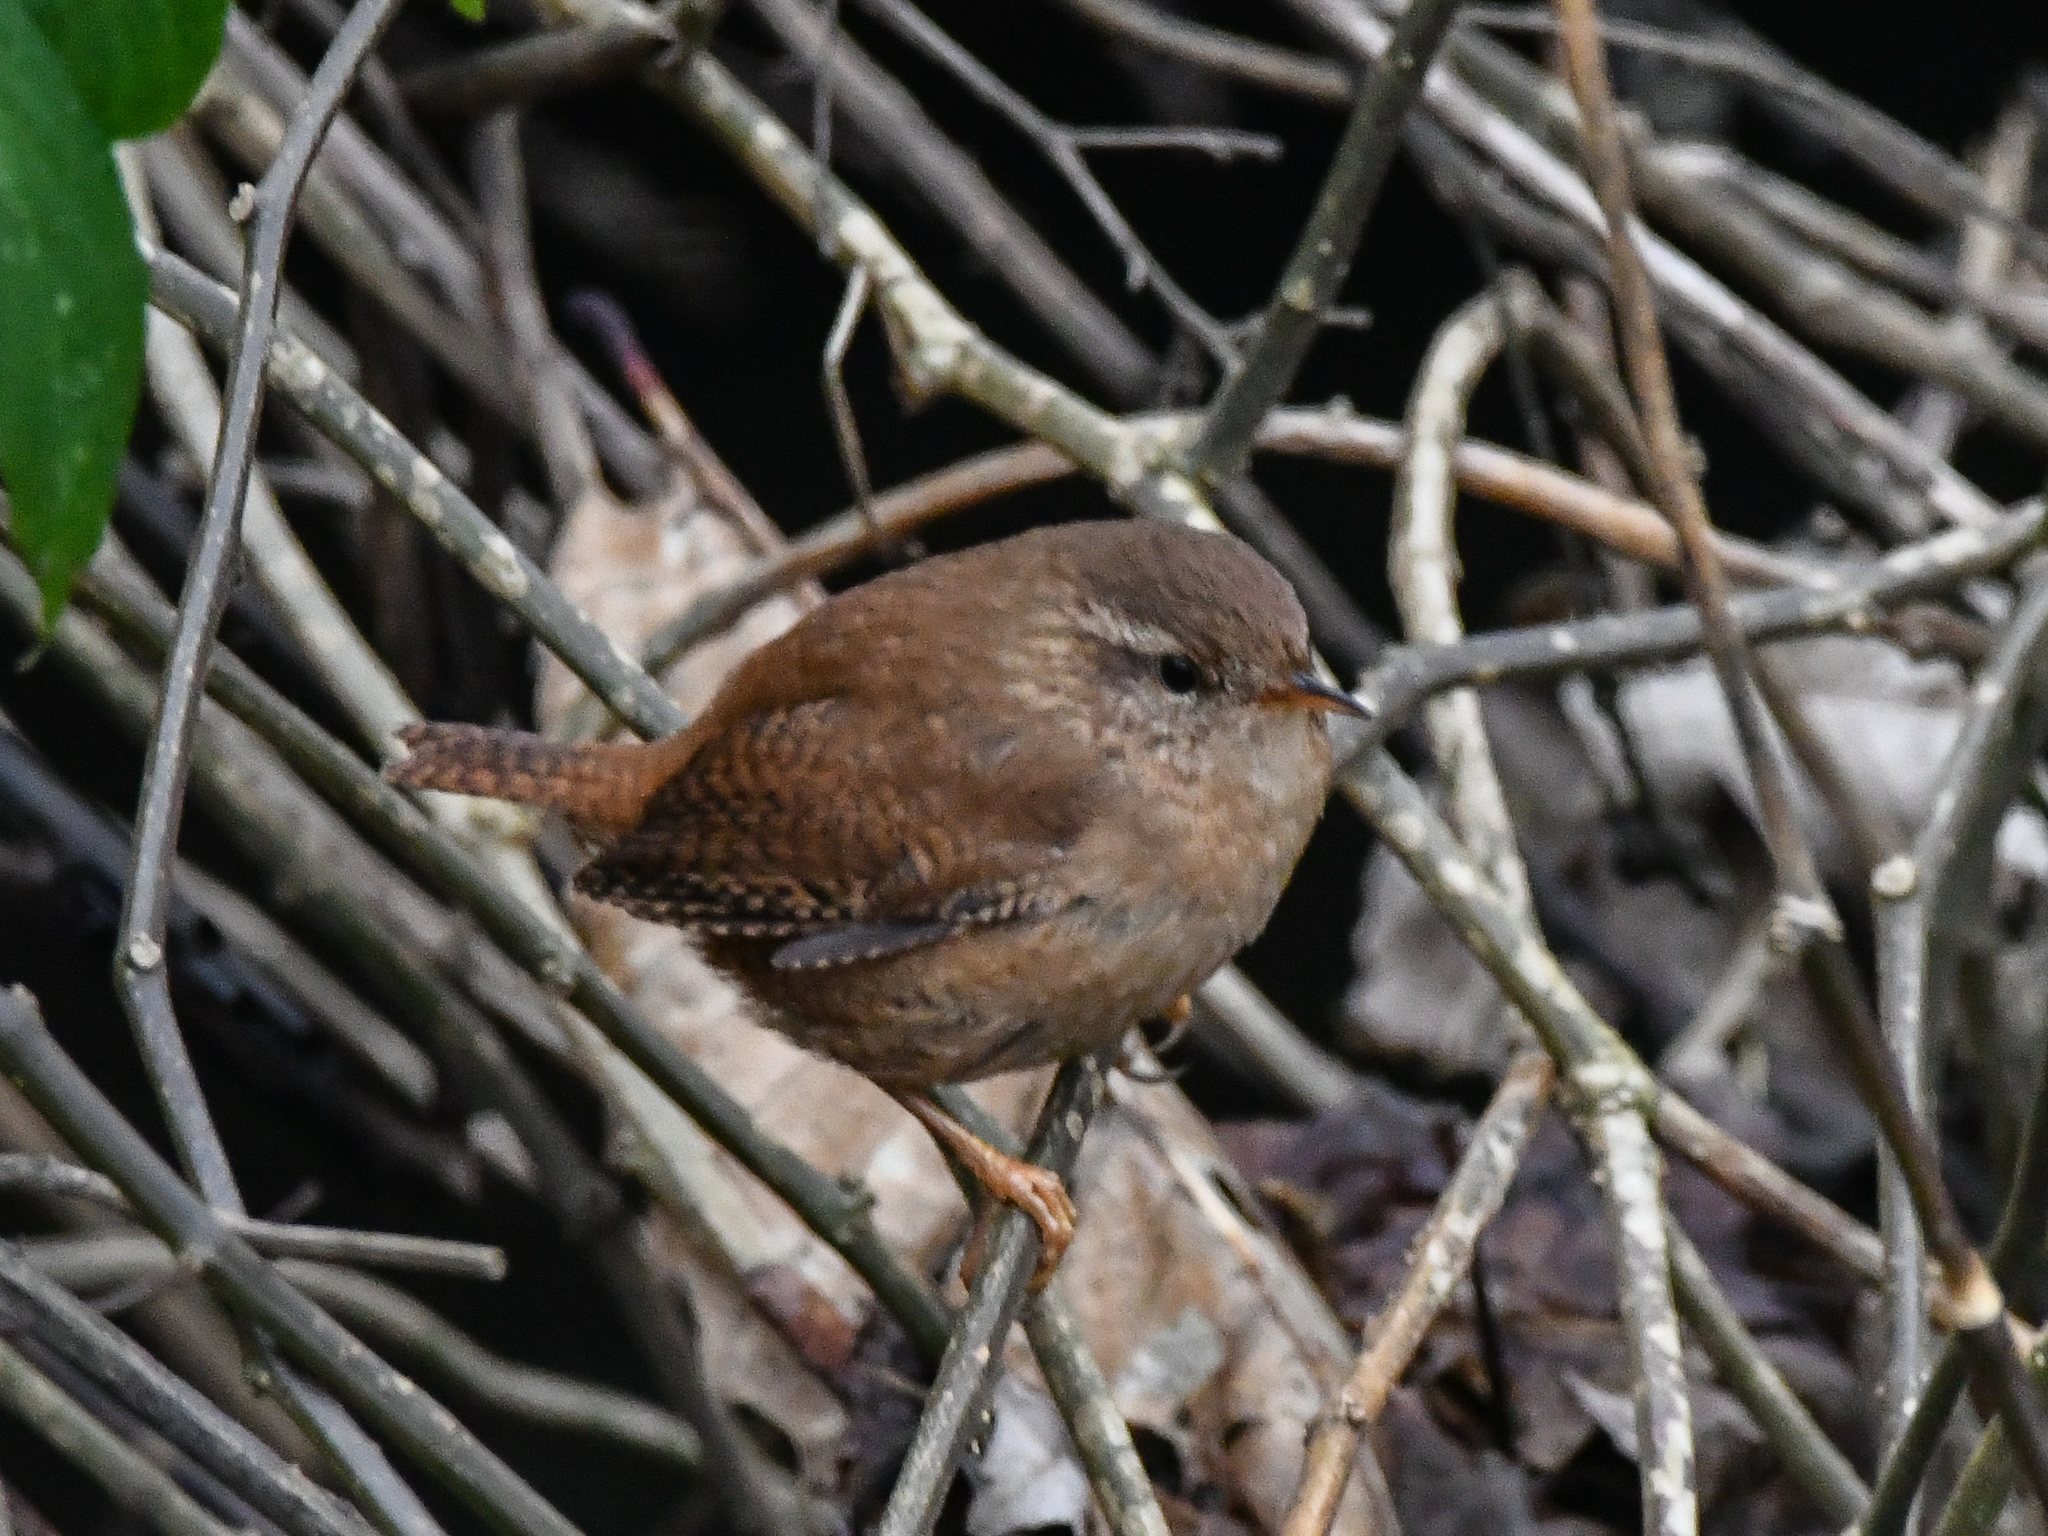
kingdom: Animalia
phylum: Chordata
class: Aves
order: Passeriformes
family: Troglodytidae
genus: Troglodytes
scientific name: Troglodytes troglodytes
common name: Eurasian wren
